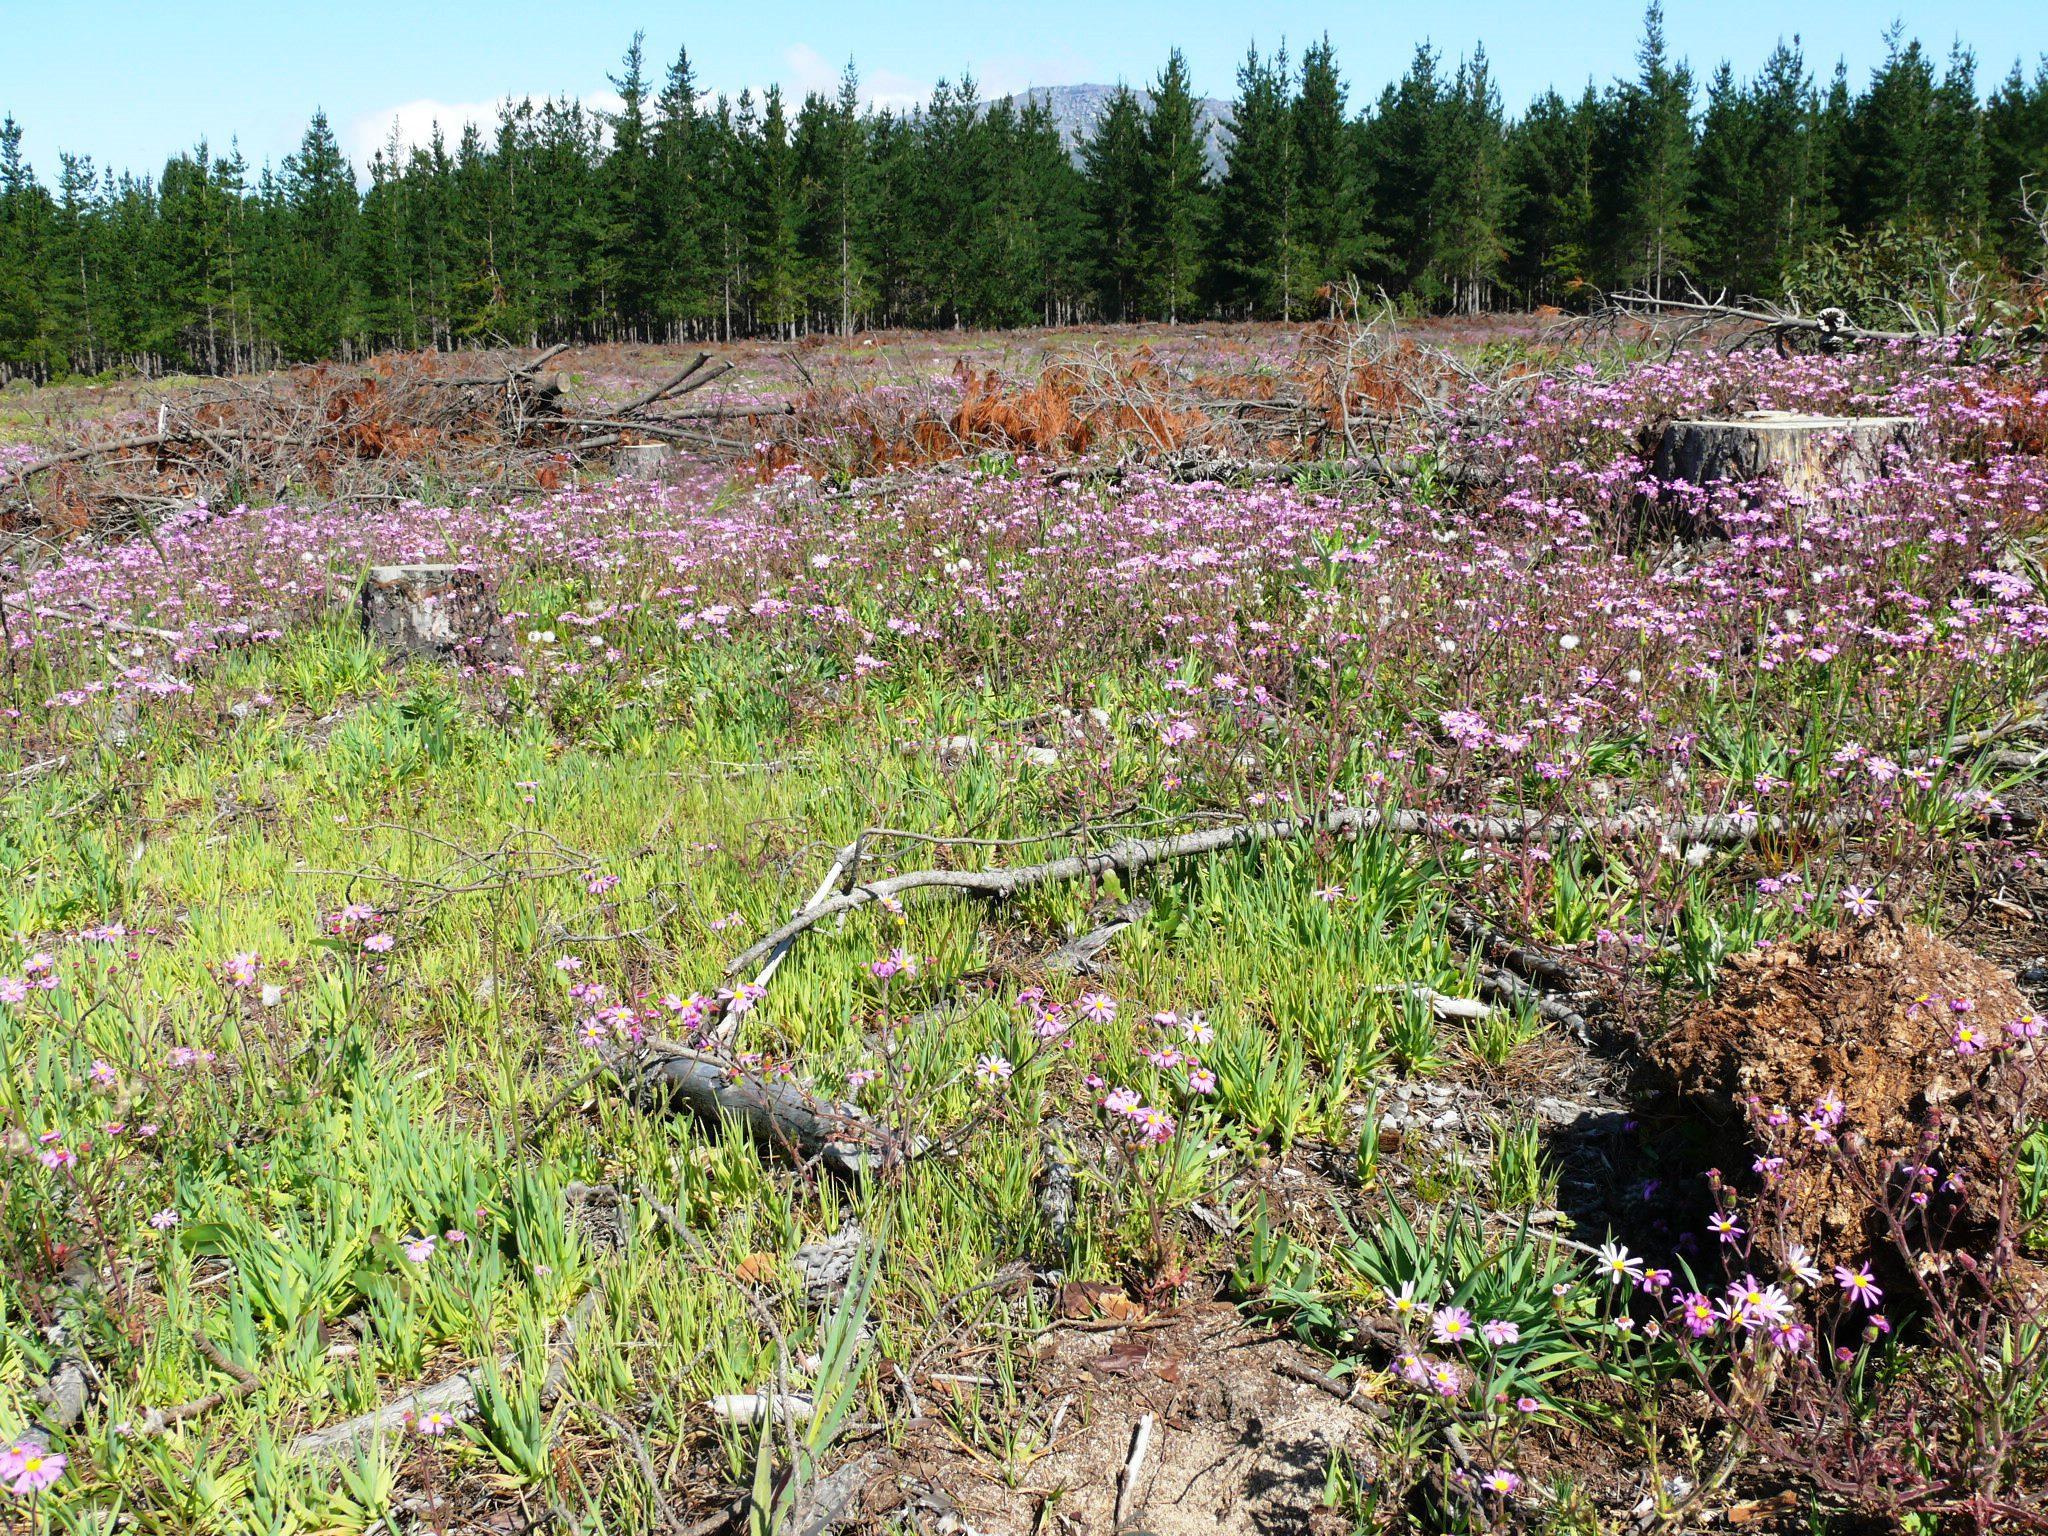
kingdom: Plantae
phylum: Tracheophyta
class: Magnoliopsida
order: Asterales
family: Asteraceae
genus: Senecio
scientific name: Senecio arenarius
